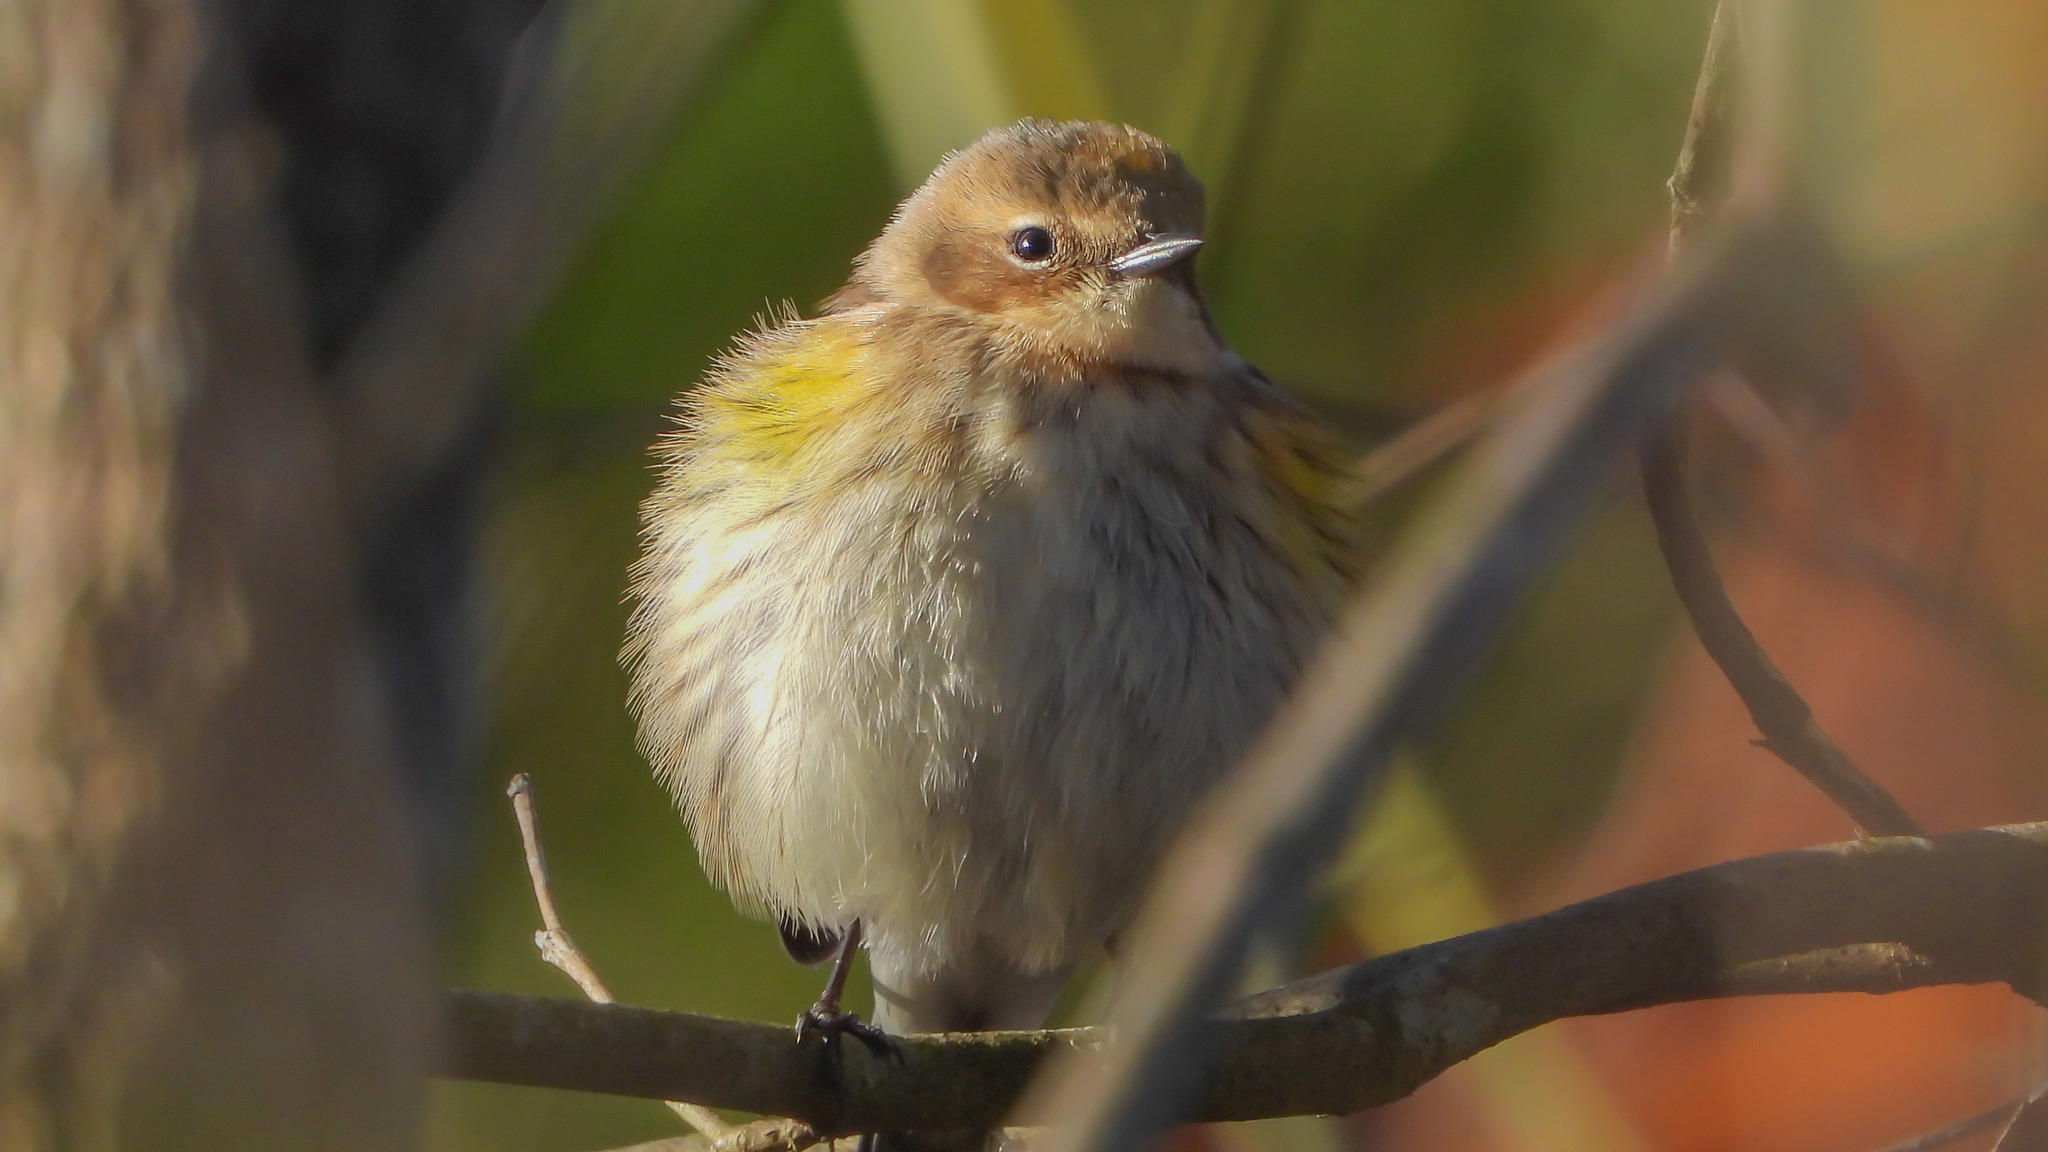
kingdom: Animalia
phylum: Chordata
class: Aves
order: Passeriformes
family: Parulidae
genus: Setophaga
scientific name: Setophaga coronata
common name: Myrtle warbler
